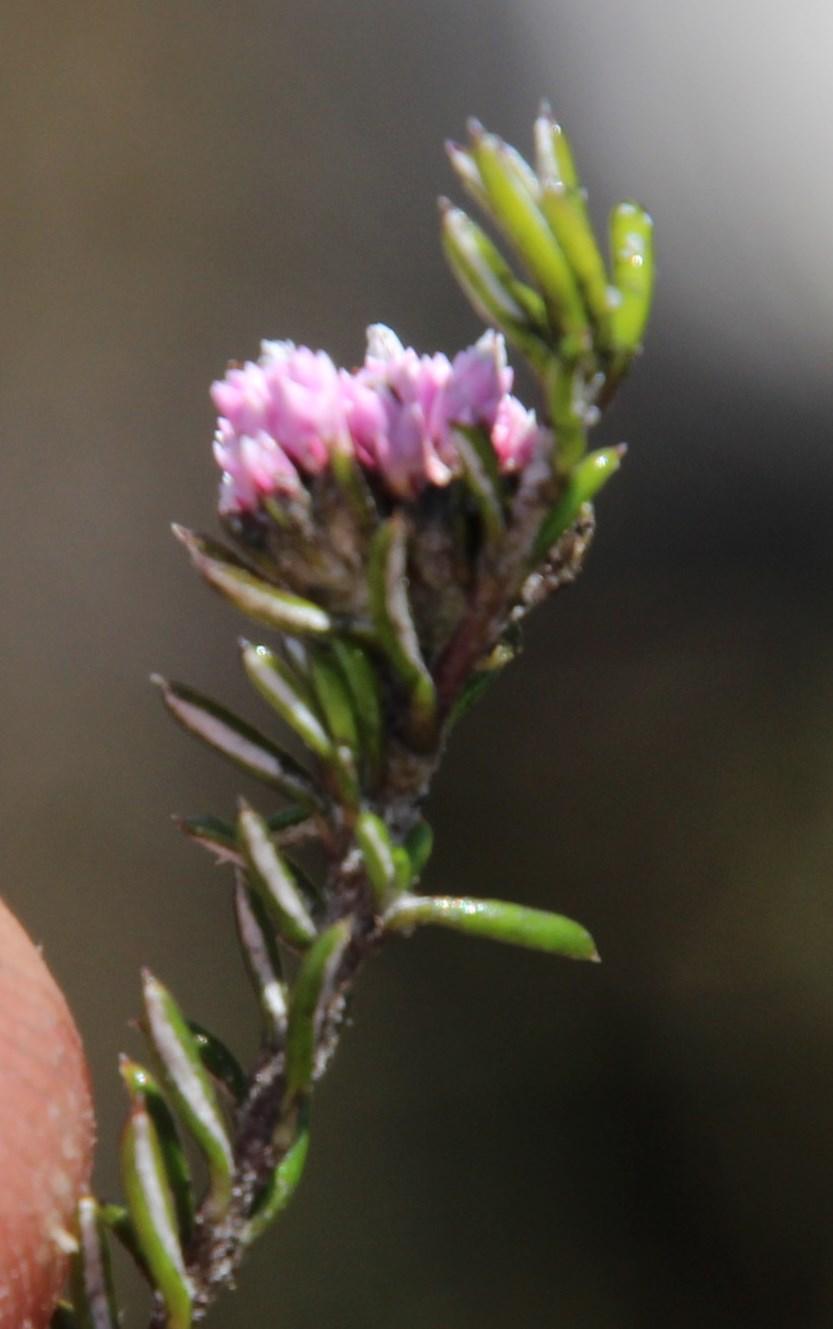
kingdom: Plantae
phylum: Tracheophyta
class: Magnoliopsida
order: Asterales
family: Asteraceae
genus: Metalasia
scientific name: Metalasia serrata
